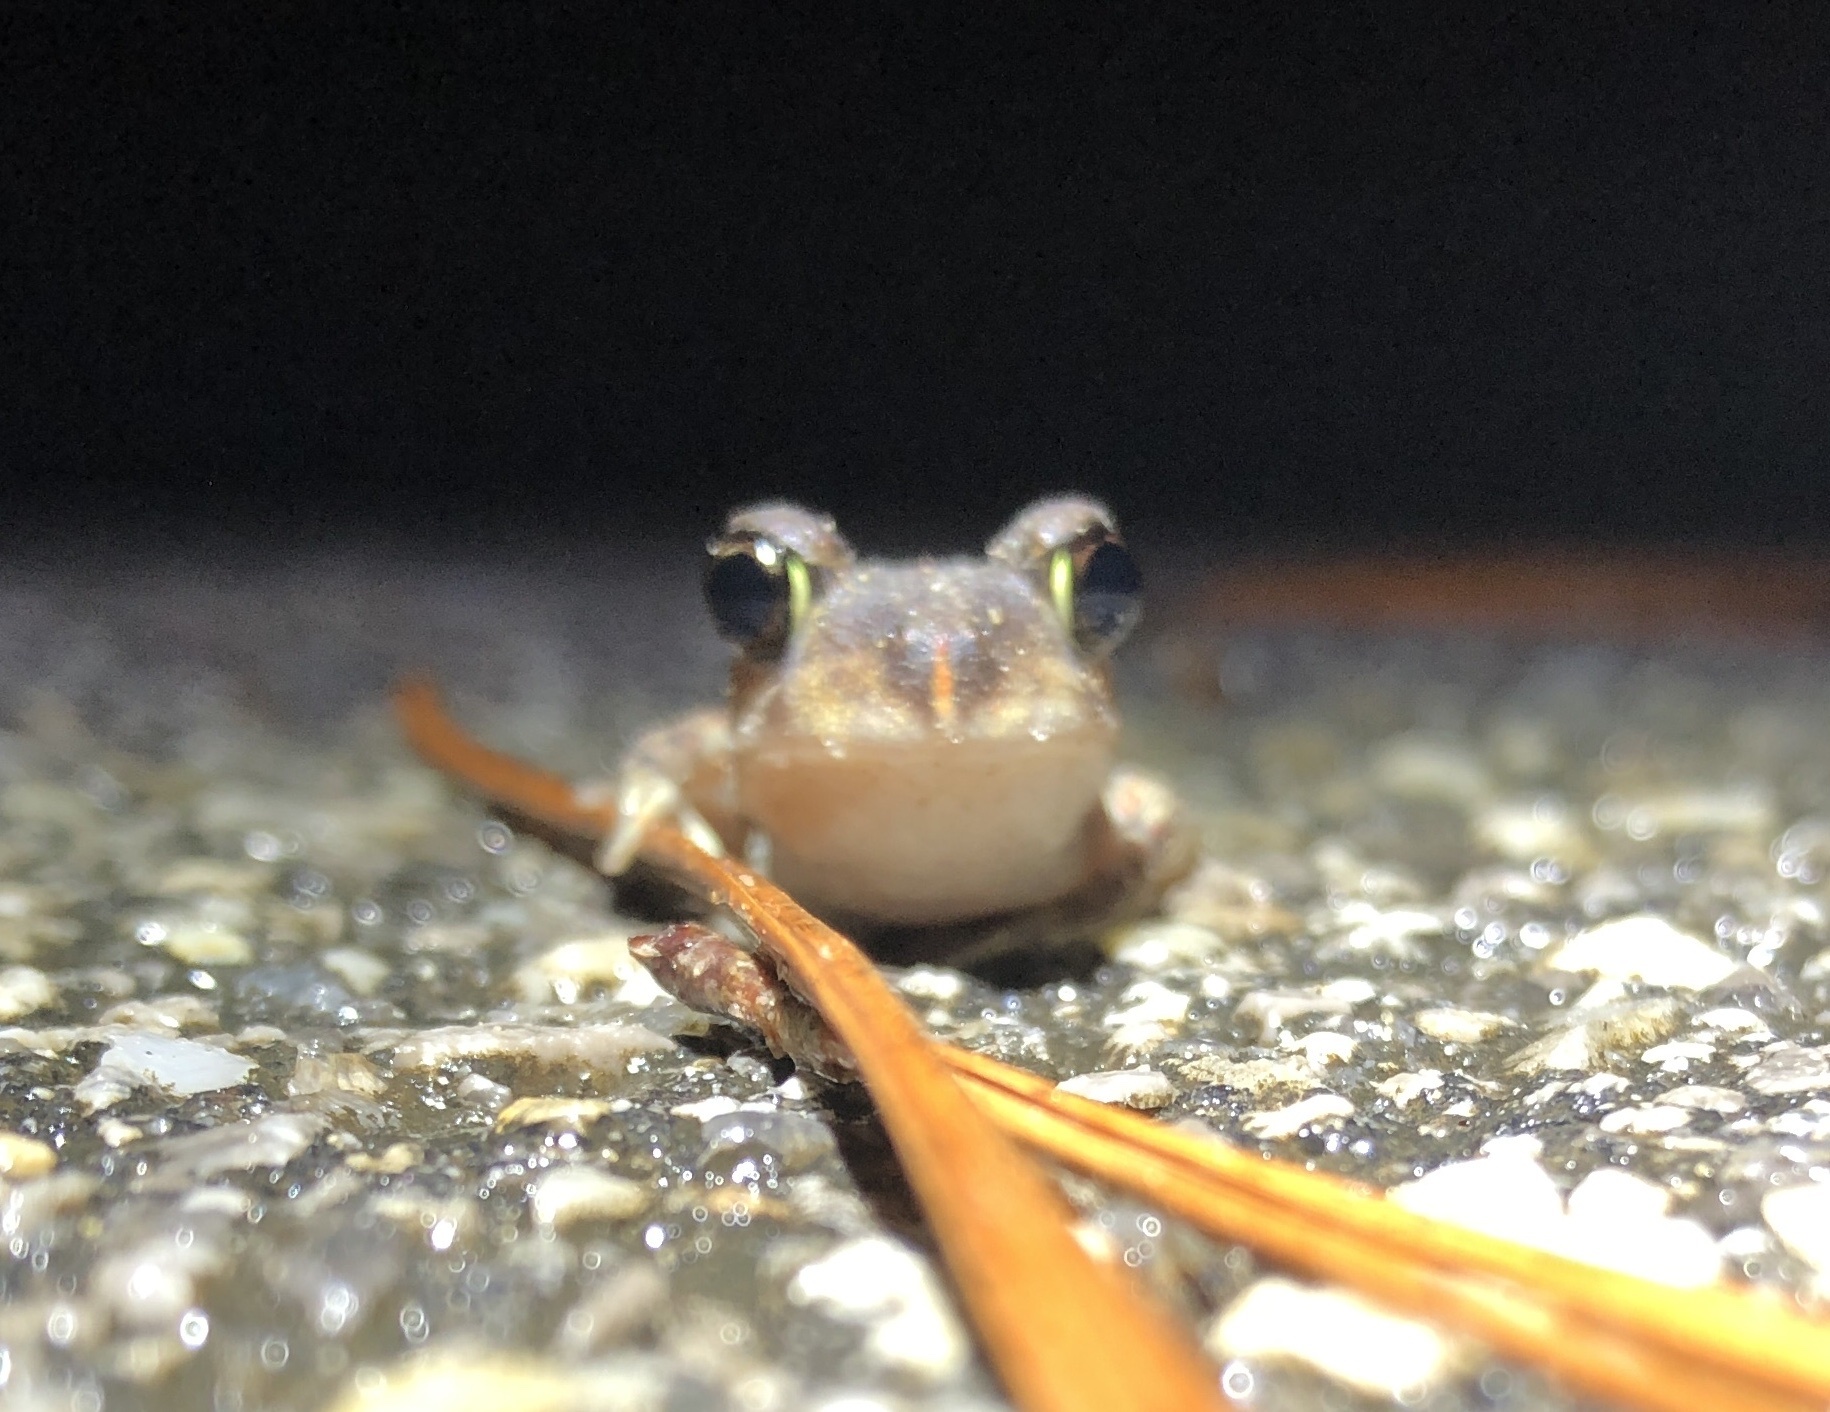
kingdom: Animalia
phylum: Chordata
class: Amphibia
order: Anura
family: Scaphiopodidae
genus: Scaphiopus
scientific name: Scaphiopus holbrookii
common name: Eastern spadefoot toad
